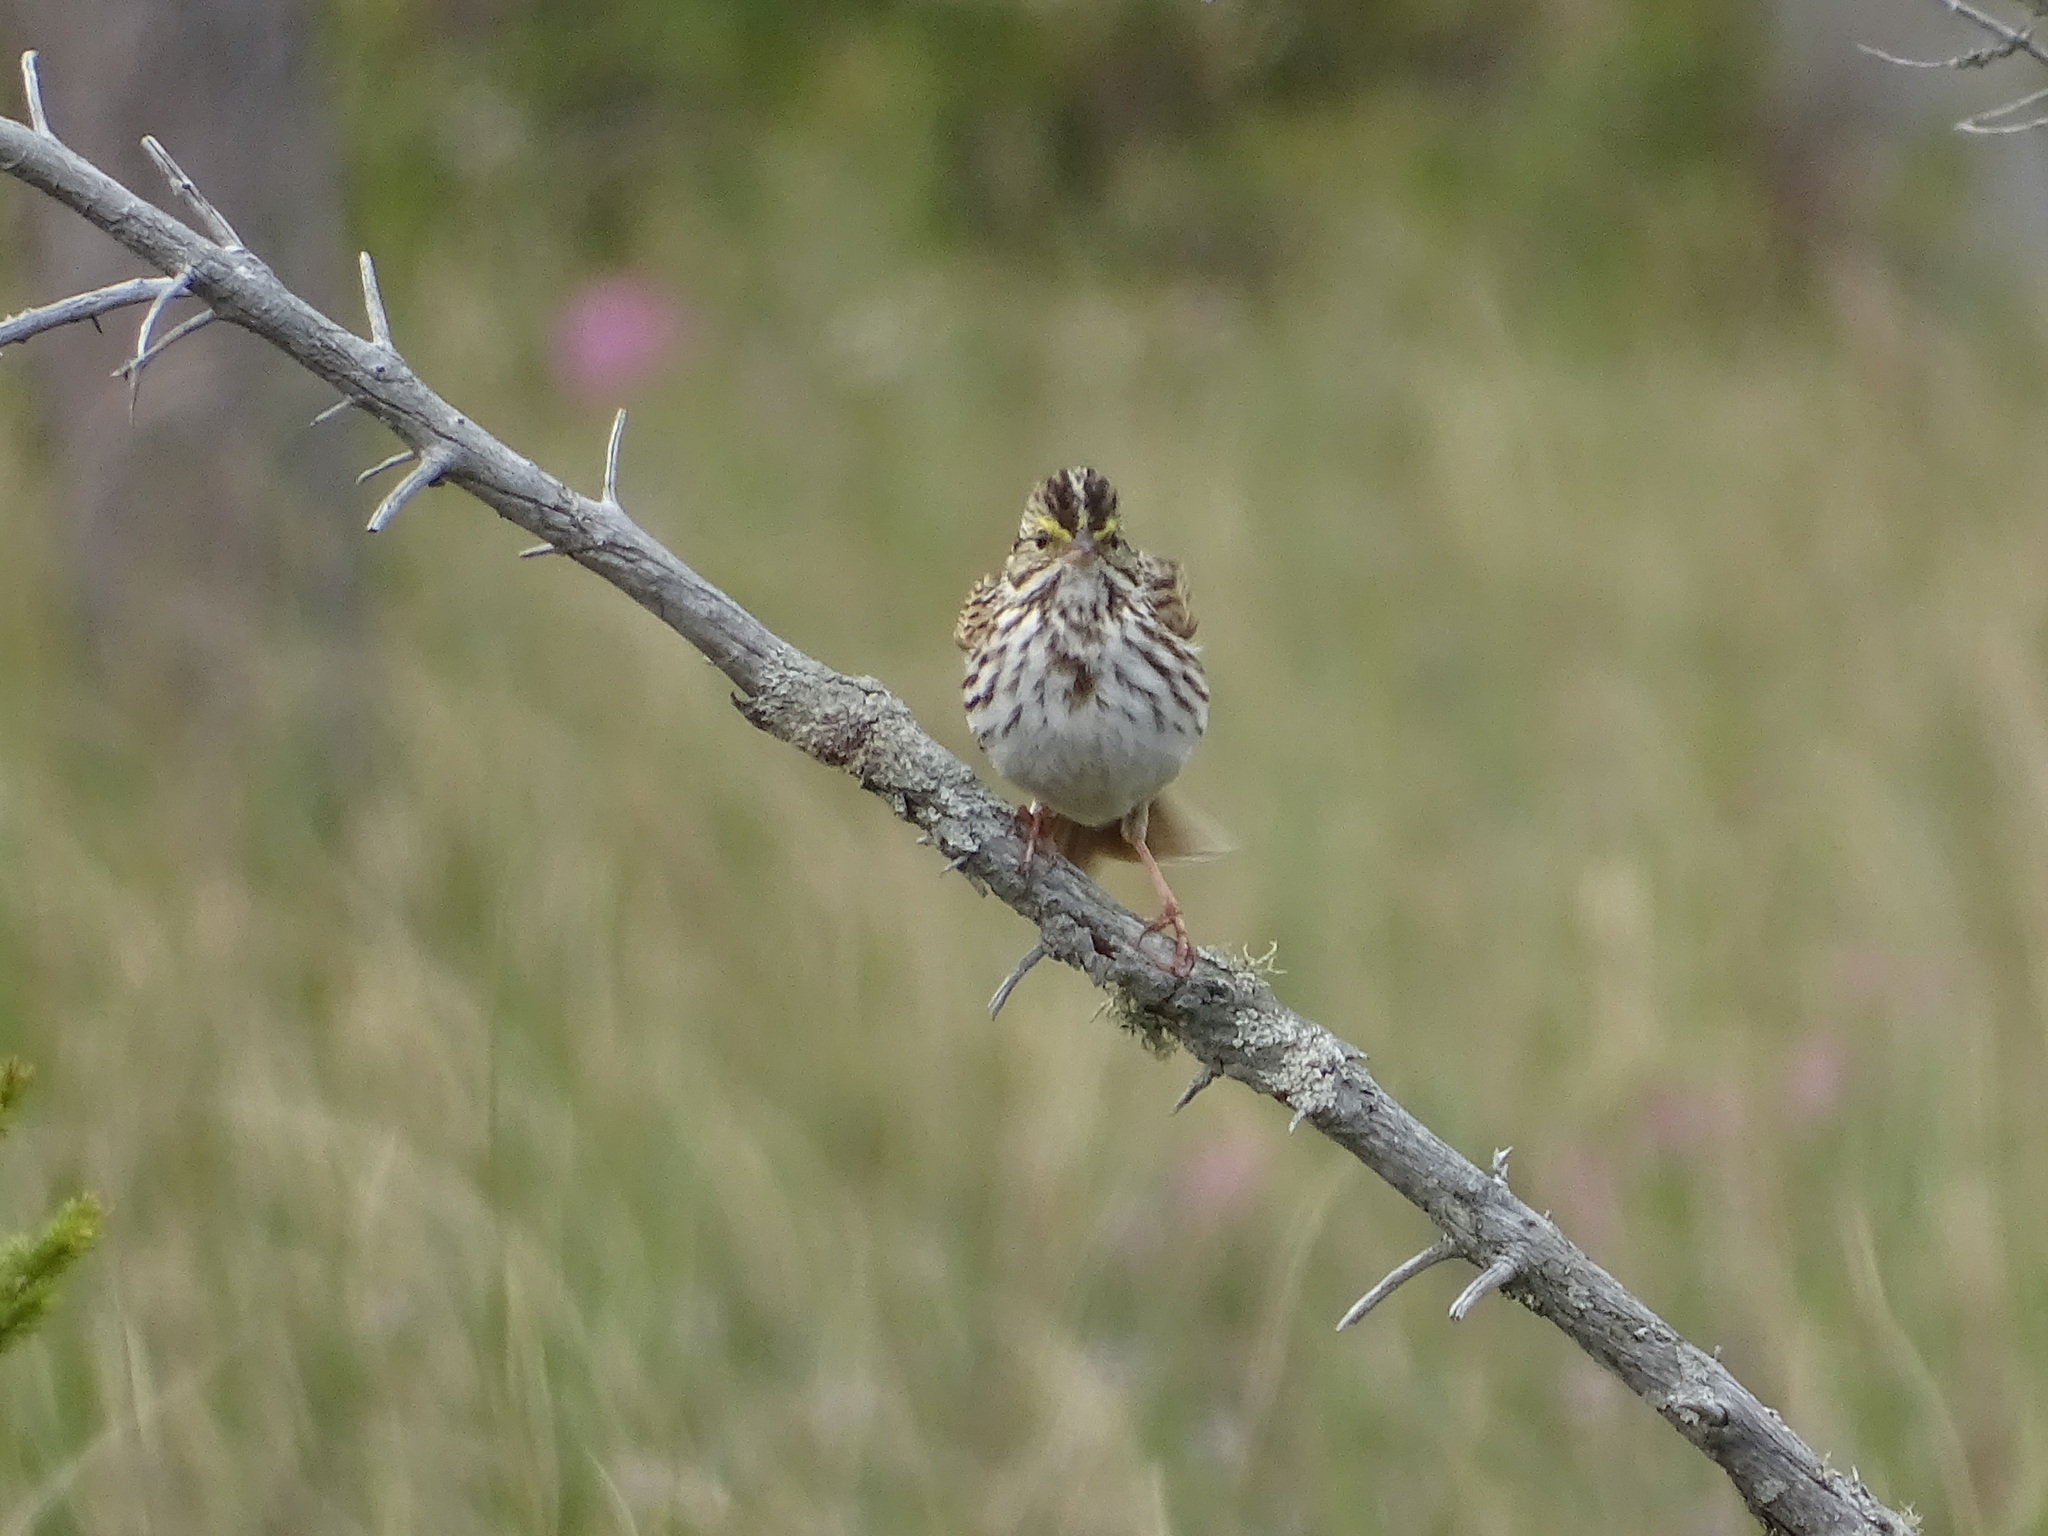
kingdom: Animalia
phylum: Chordata
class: Aves
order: Passeriformes
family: Passerellidae
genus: Passerculus
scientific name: Passerculus sandwichensis
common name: Savannah sparrow
